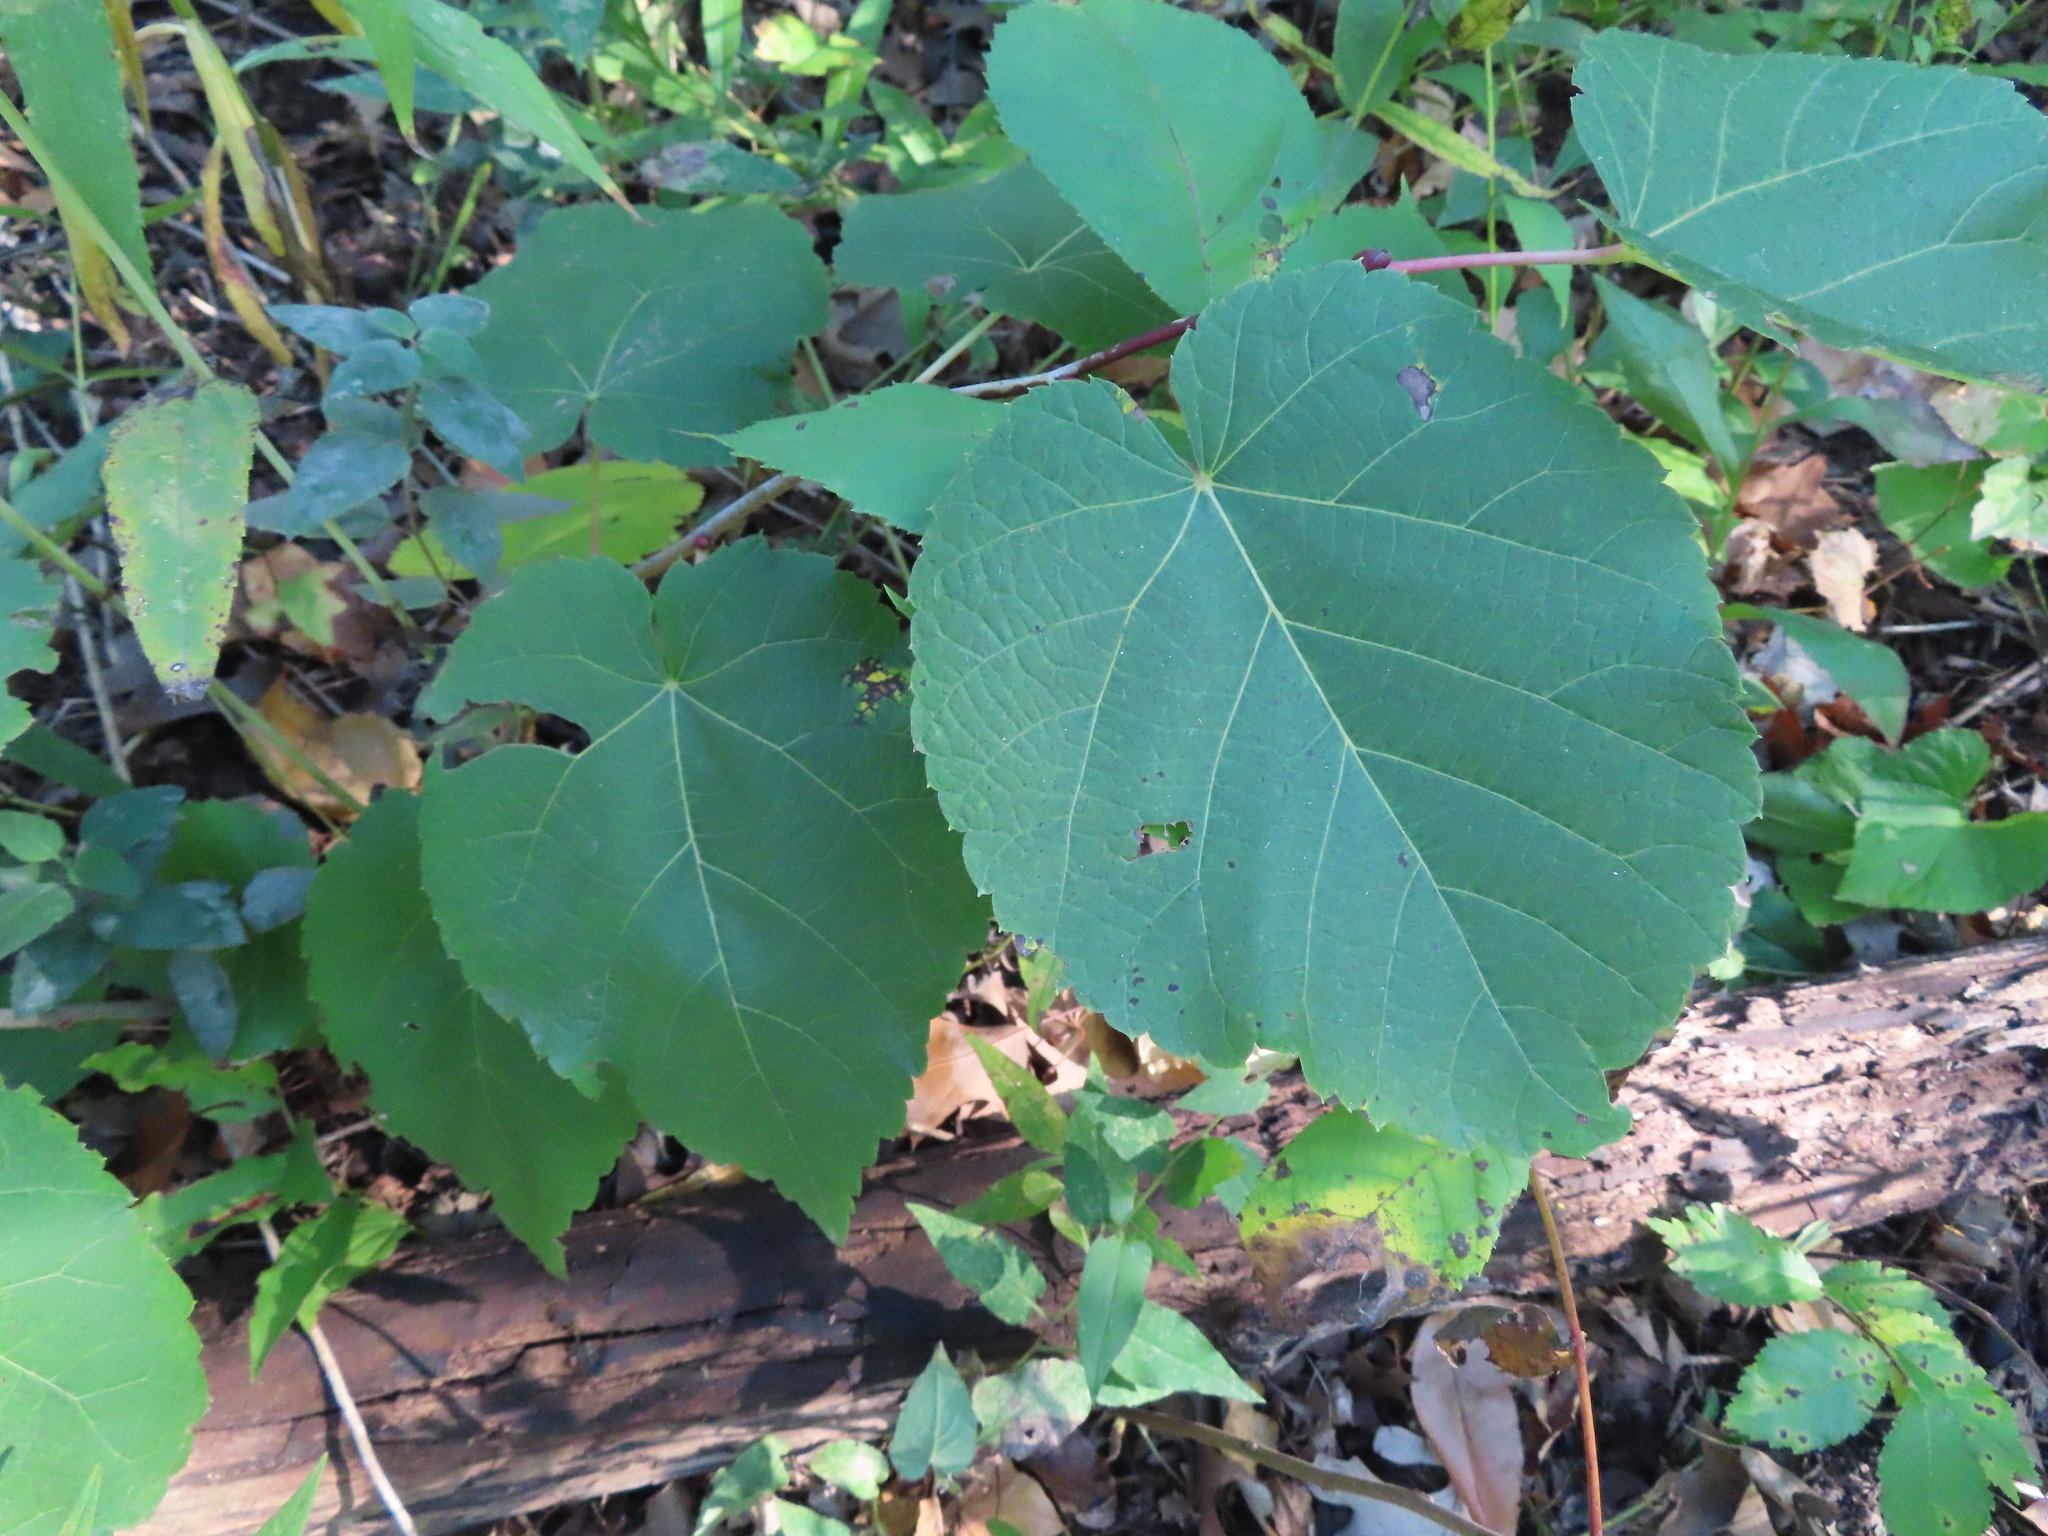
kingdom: Plantae
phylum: Tracheophyta
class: Magnoliopsida
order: Malvales
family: Malvaceae
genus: Tilia
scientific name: Tilia americana
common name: Basswood
